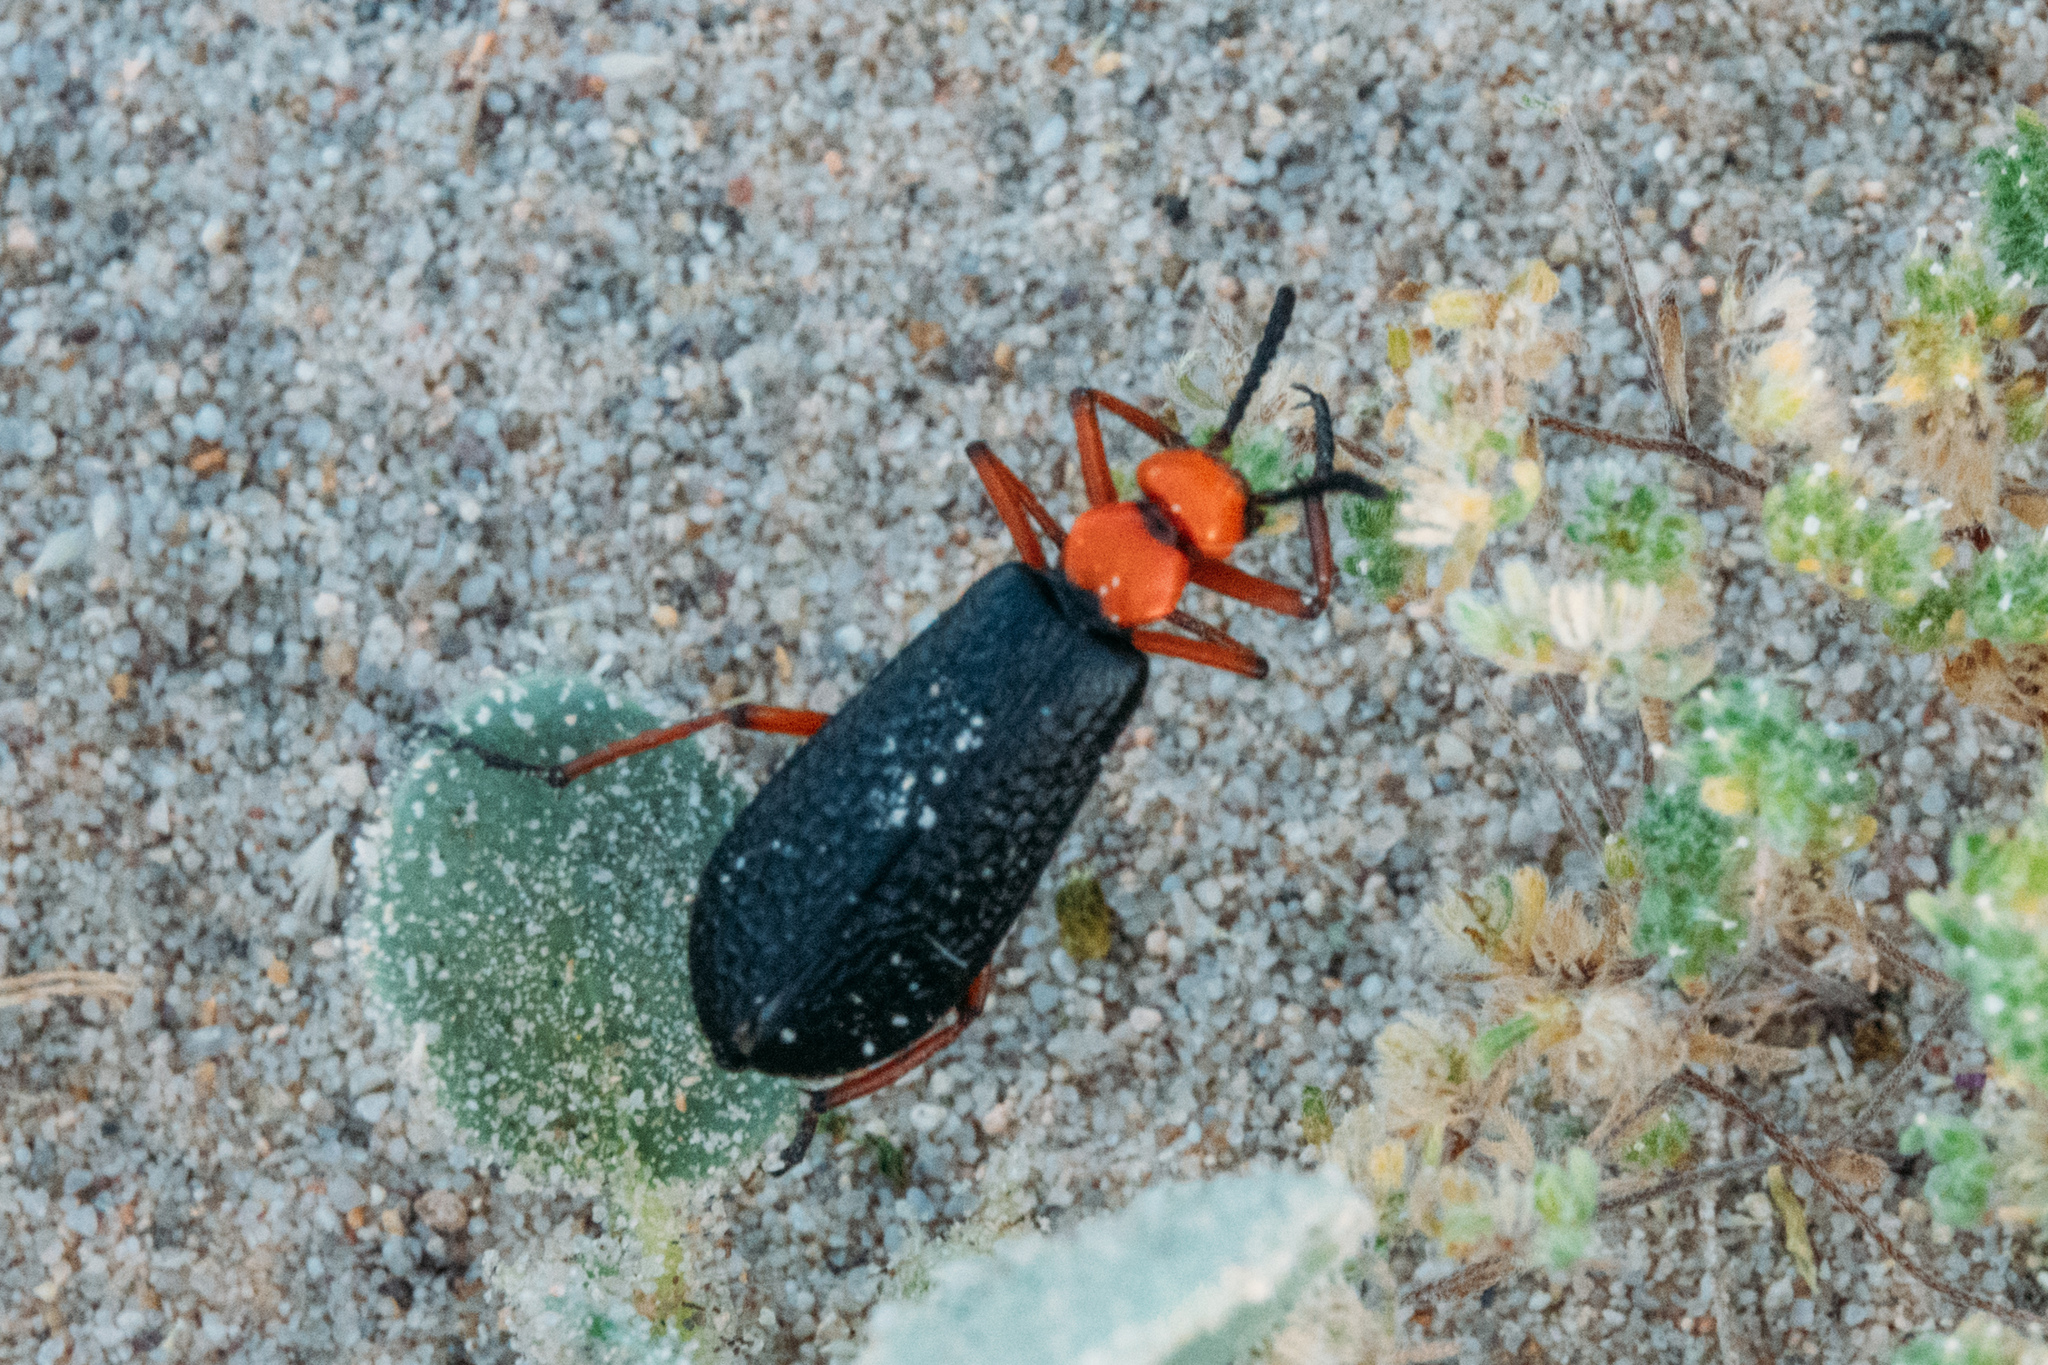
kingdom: Animalia
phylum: Arthropoda
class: Insecta
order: Coleoptera
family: Meloidae
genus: Lytta
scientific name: Lytta magister
